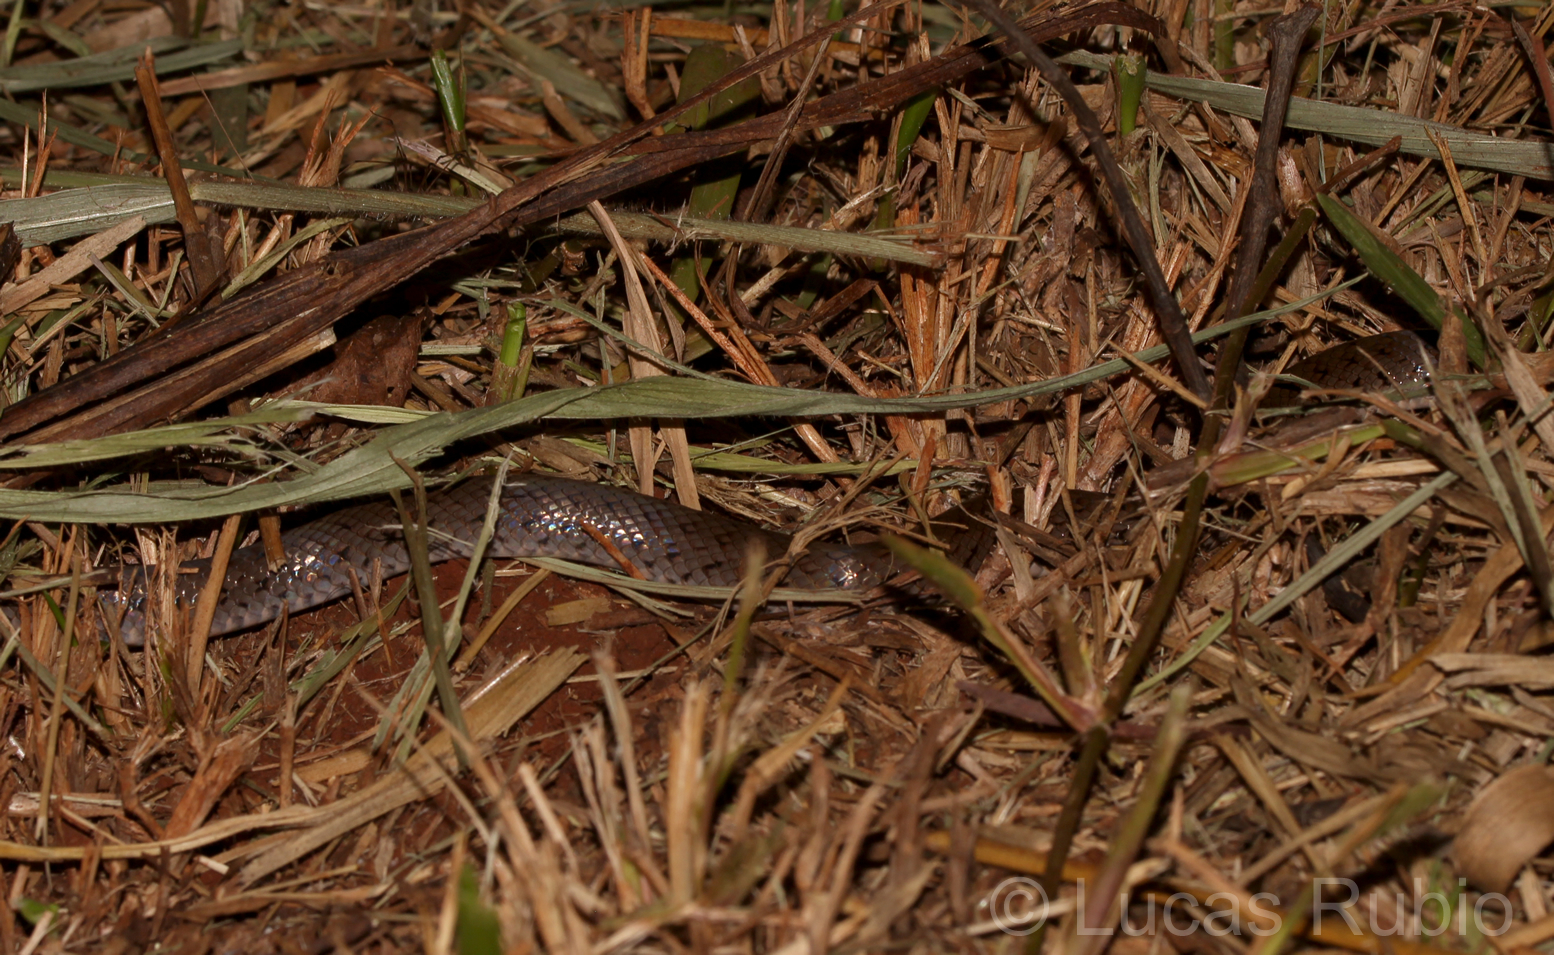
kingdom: Animalia
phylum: Chordata
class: Squamata
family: Colubridae
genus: Erythrolamprus
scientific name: Erythrolamprus poecilogyrus
